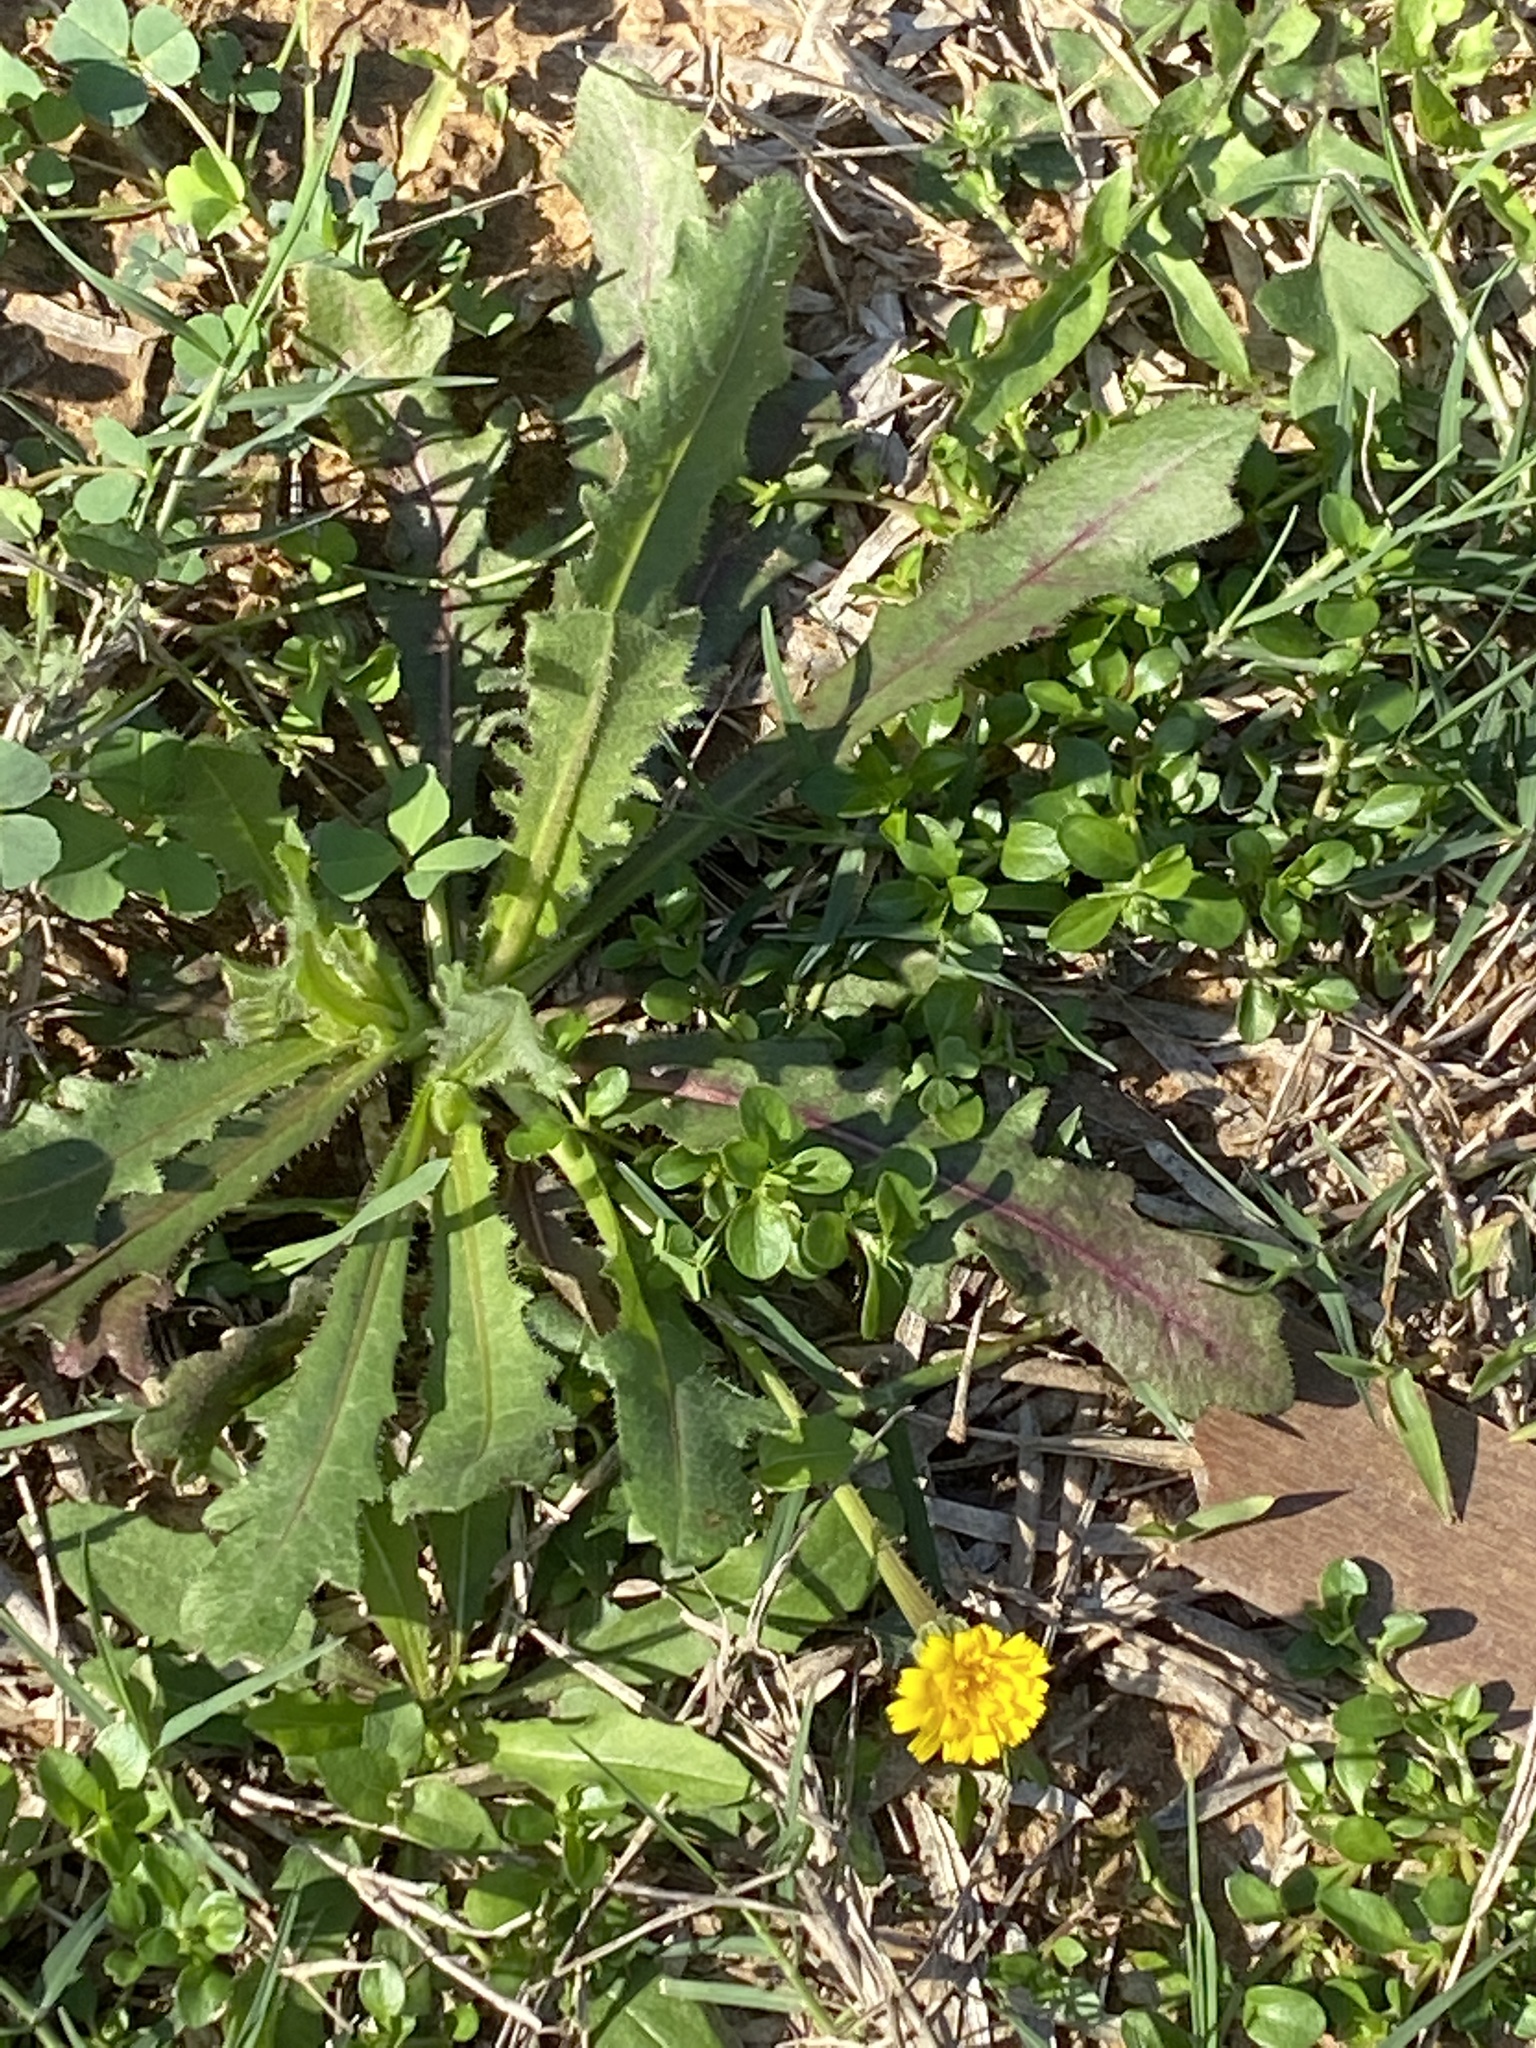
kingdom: Plantae
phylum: Tracheophyta
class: Magnoliopsida
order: Asterales
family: Asteraceae
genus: Hedypnois
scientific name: Hedypnois rhagadioloides
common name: Cretan weed
